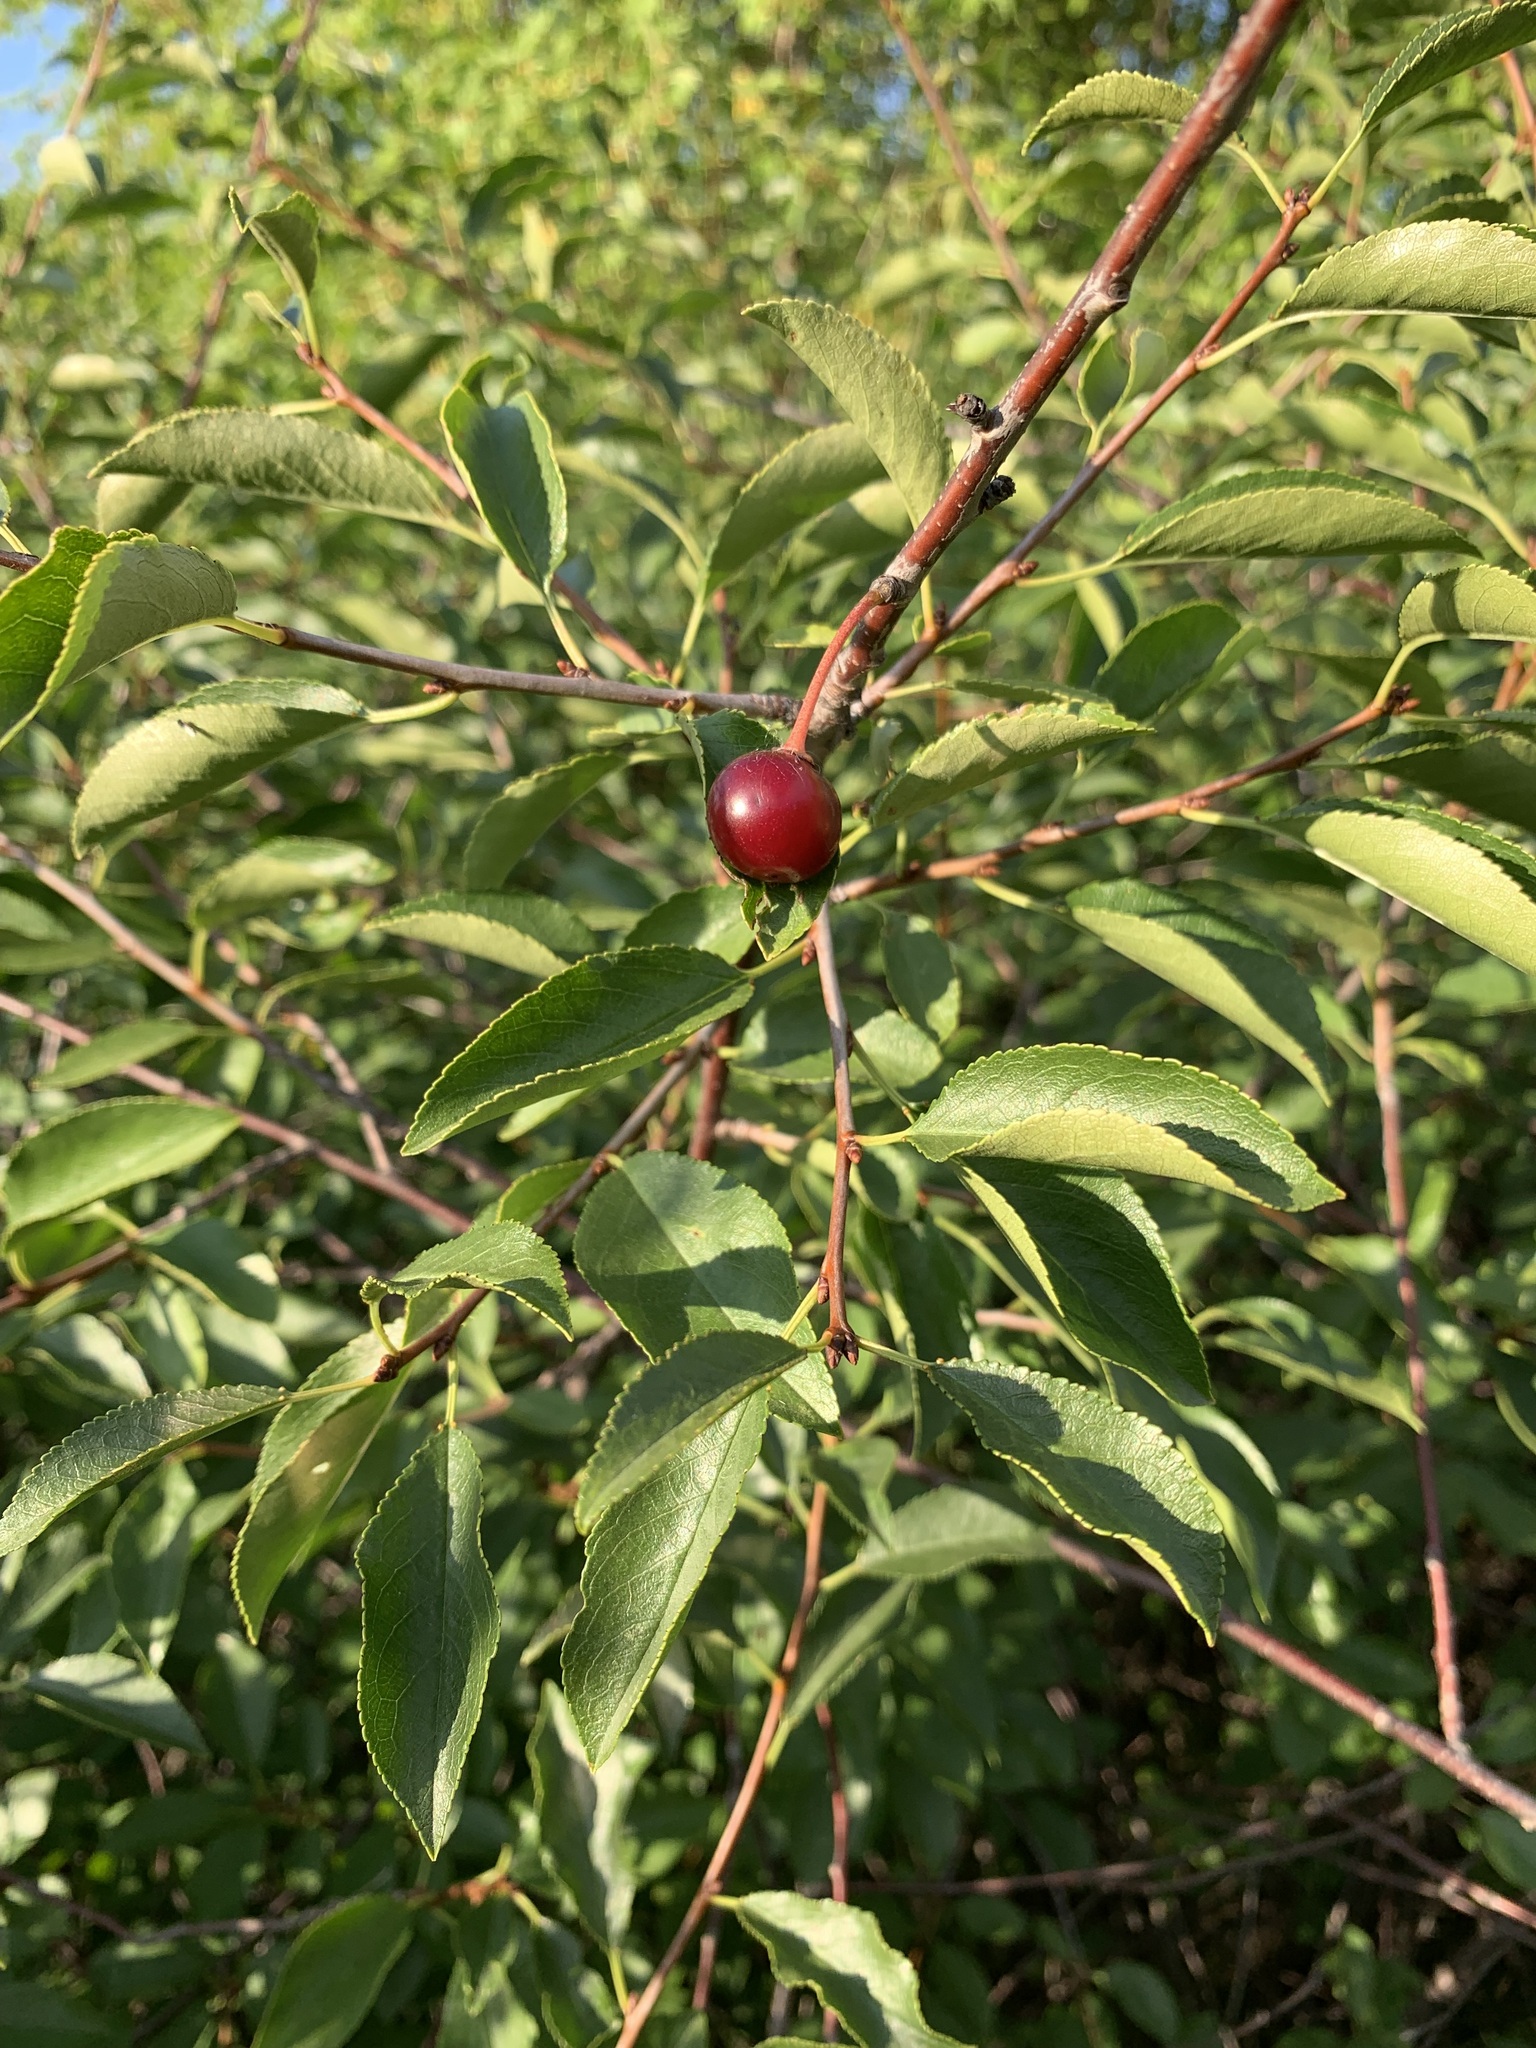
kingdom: Plantae
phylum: Tracheophyta
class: Magnoliopsida
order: Rosales
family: Rosaceae
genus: Prunus
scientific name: Prunus fruticosa
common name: European dwarf cherry
